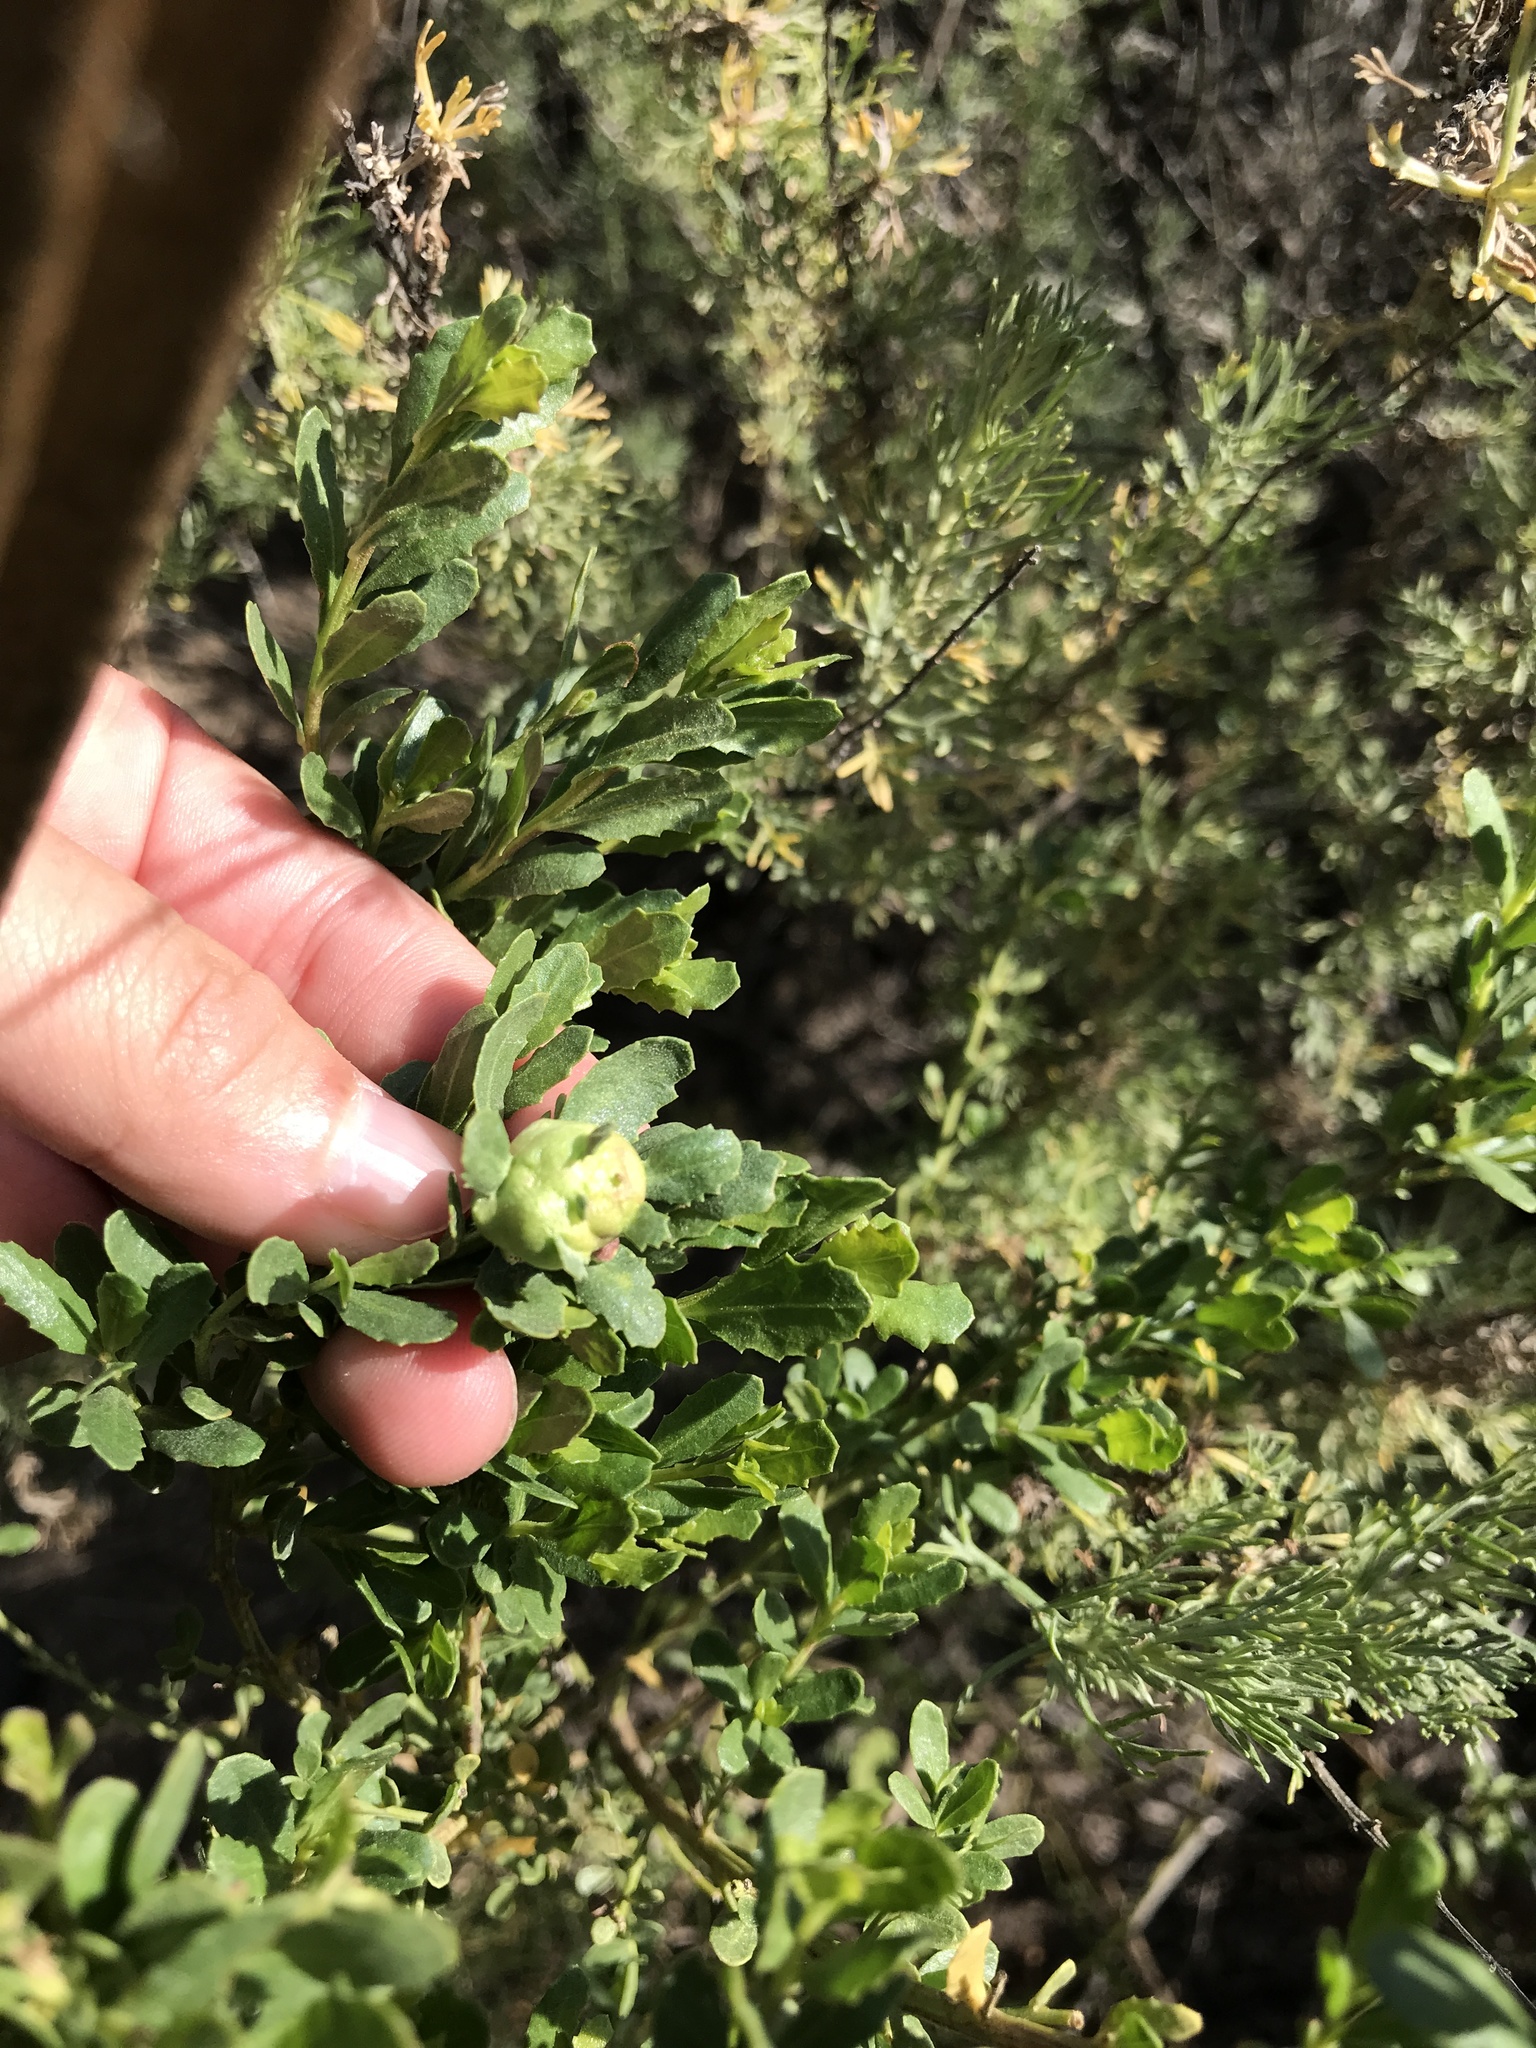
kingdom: Animalia
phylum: Arthropoda
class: Insecta
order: Diptera
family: Cecidomyiidae
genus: Rhopalomyia
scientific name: Rhopalomyia californica
